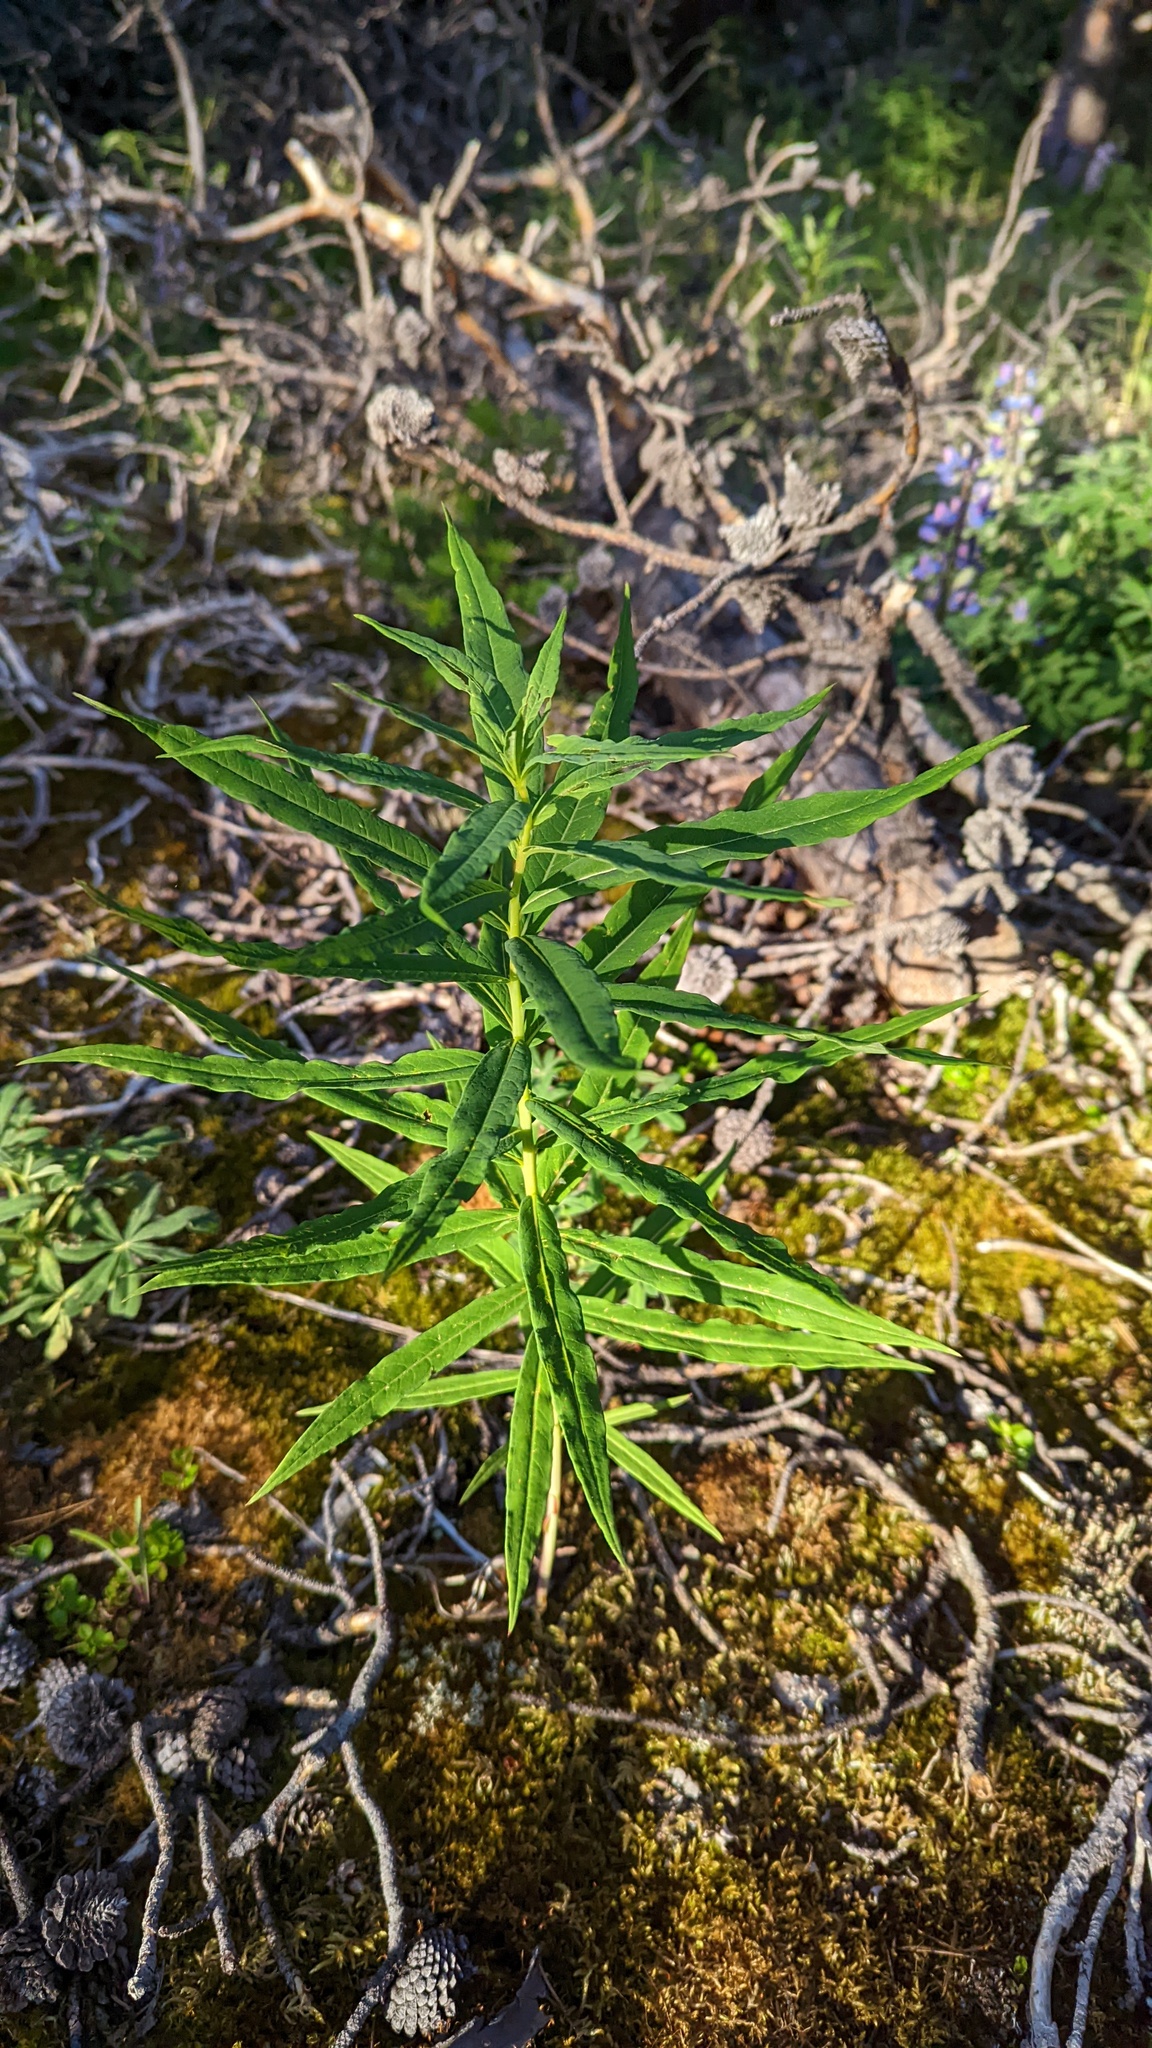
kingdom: Plantae
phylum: Tracheophyta
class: Magnoliopsida
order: Myrtales
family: Onagraceae
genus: Chamaenerion
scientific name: Chamaenerion angustifolium
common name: Fireweed
